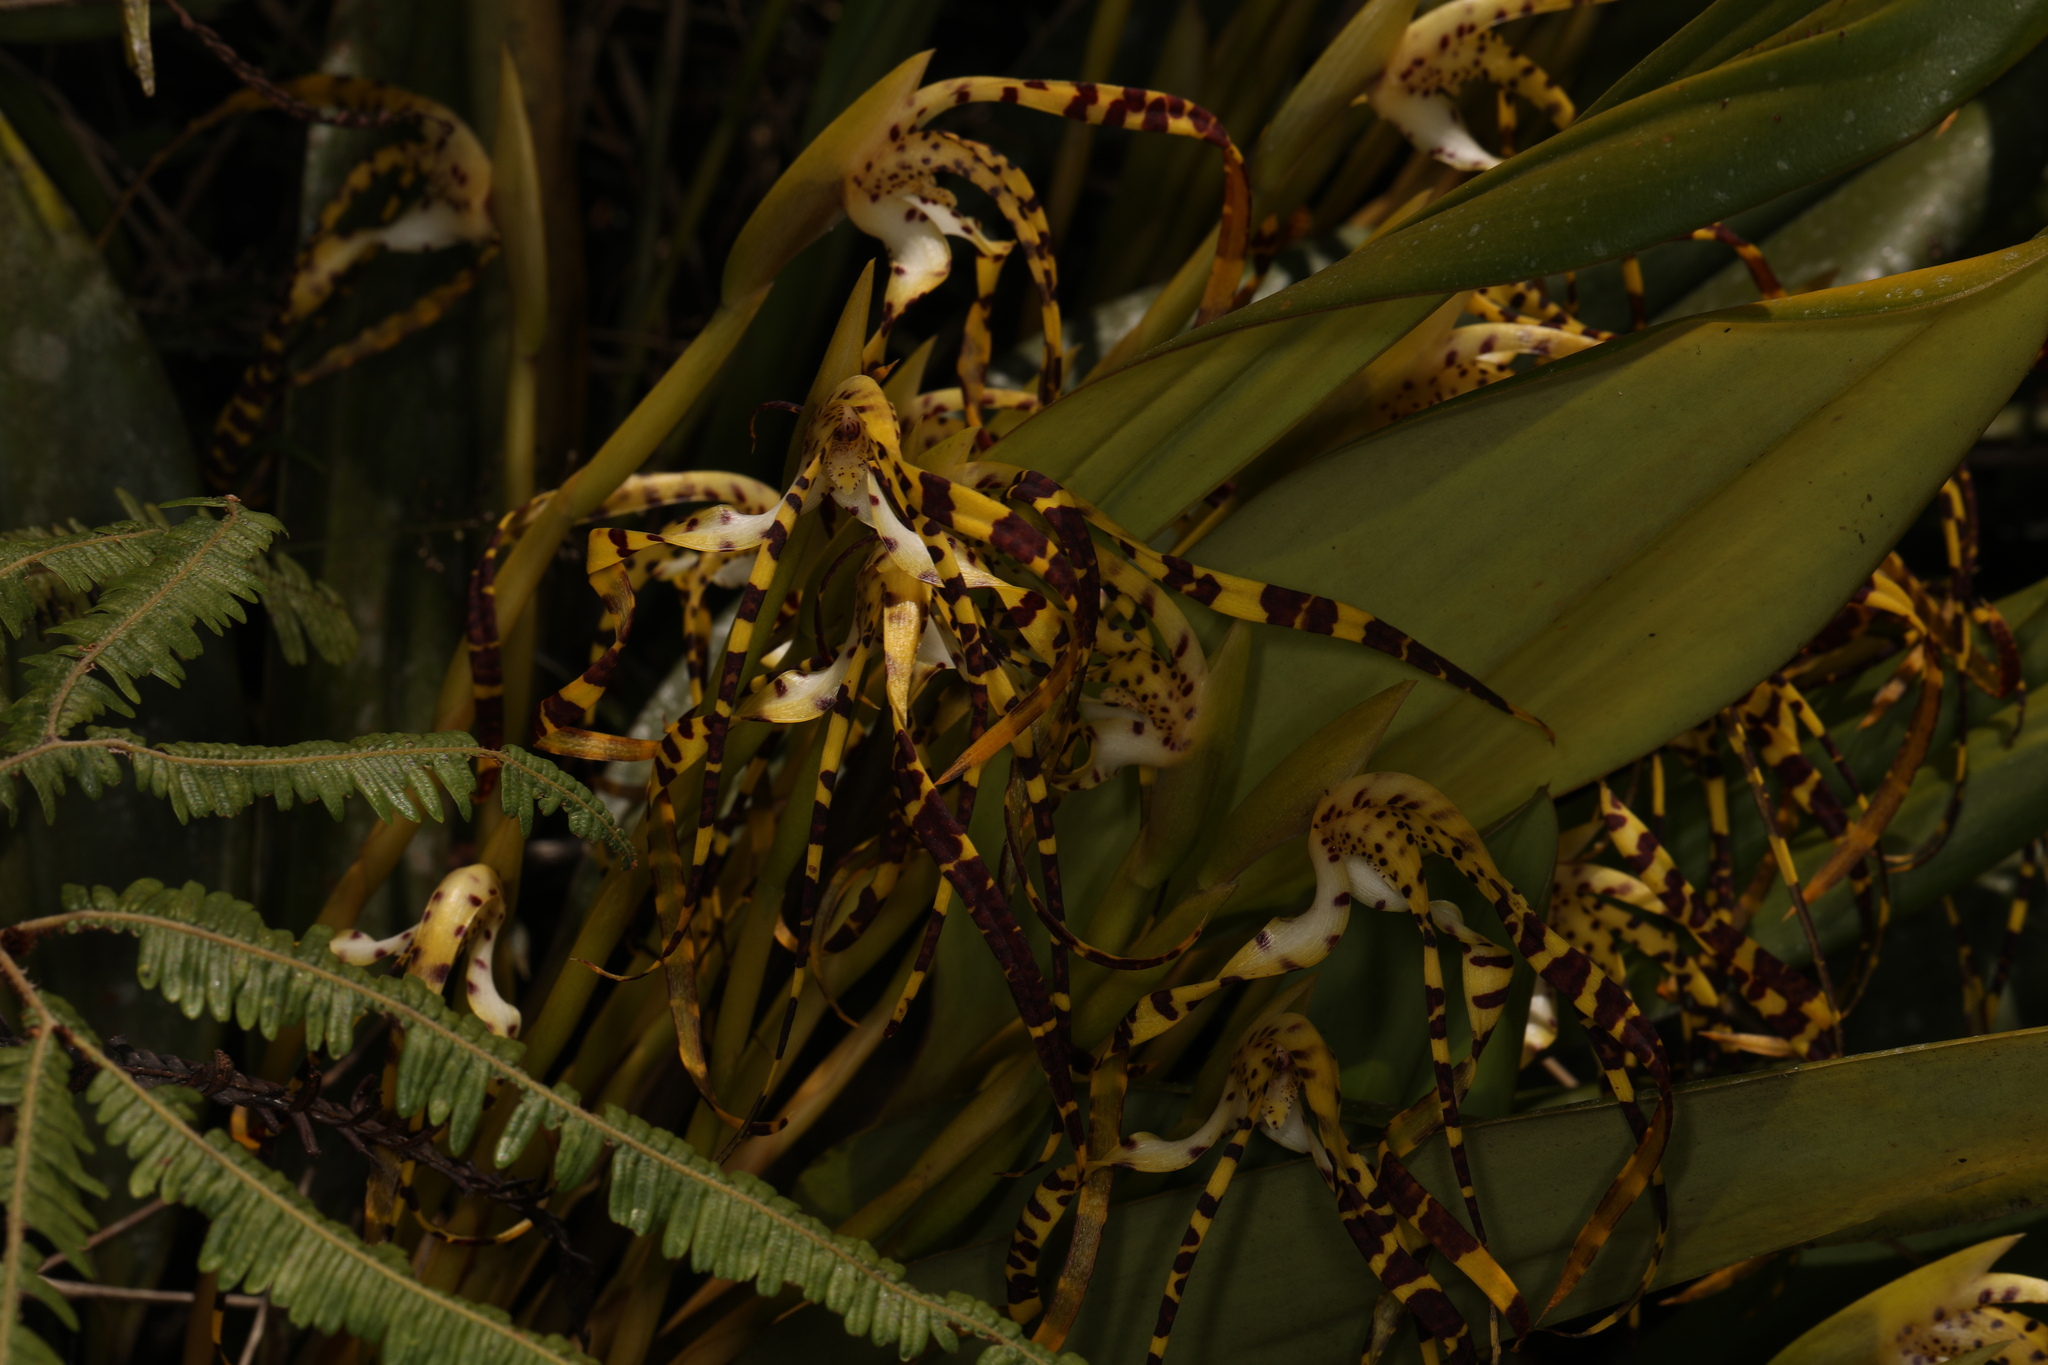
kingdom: Plantae
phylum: Tracheophyta
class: Liliopsida
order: Asparagales
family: Orchidaceae
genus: Maxillaria
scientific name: Maxillaria speciosa
